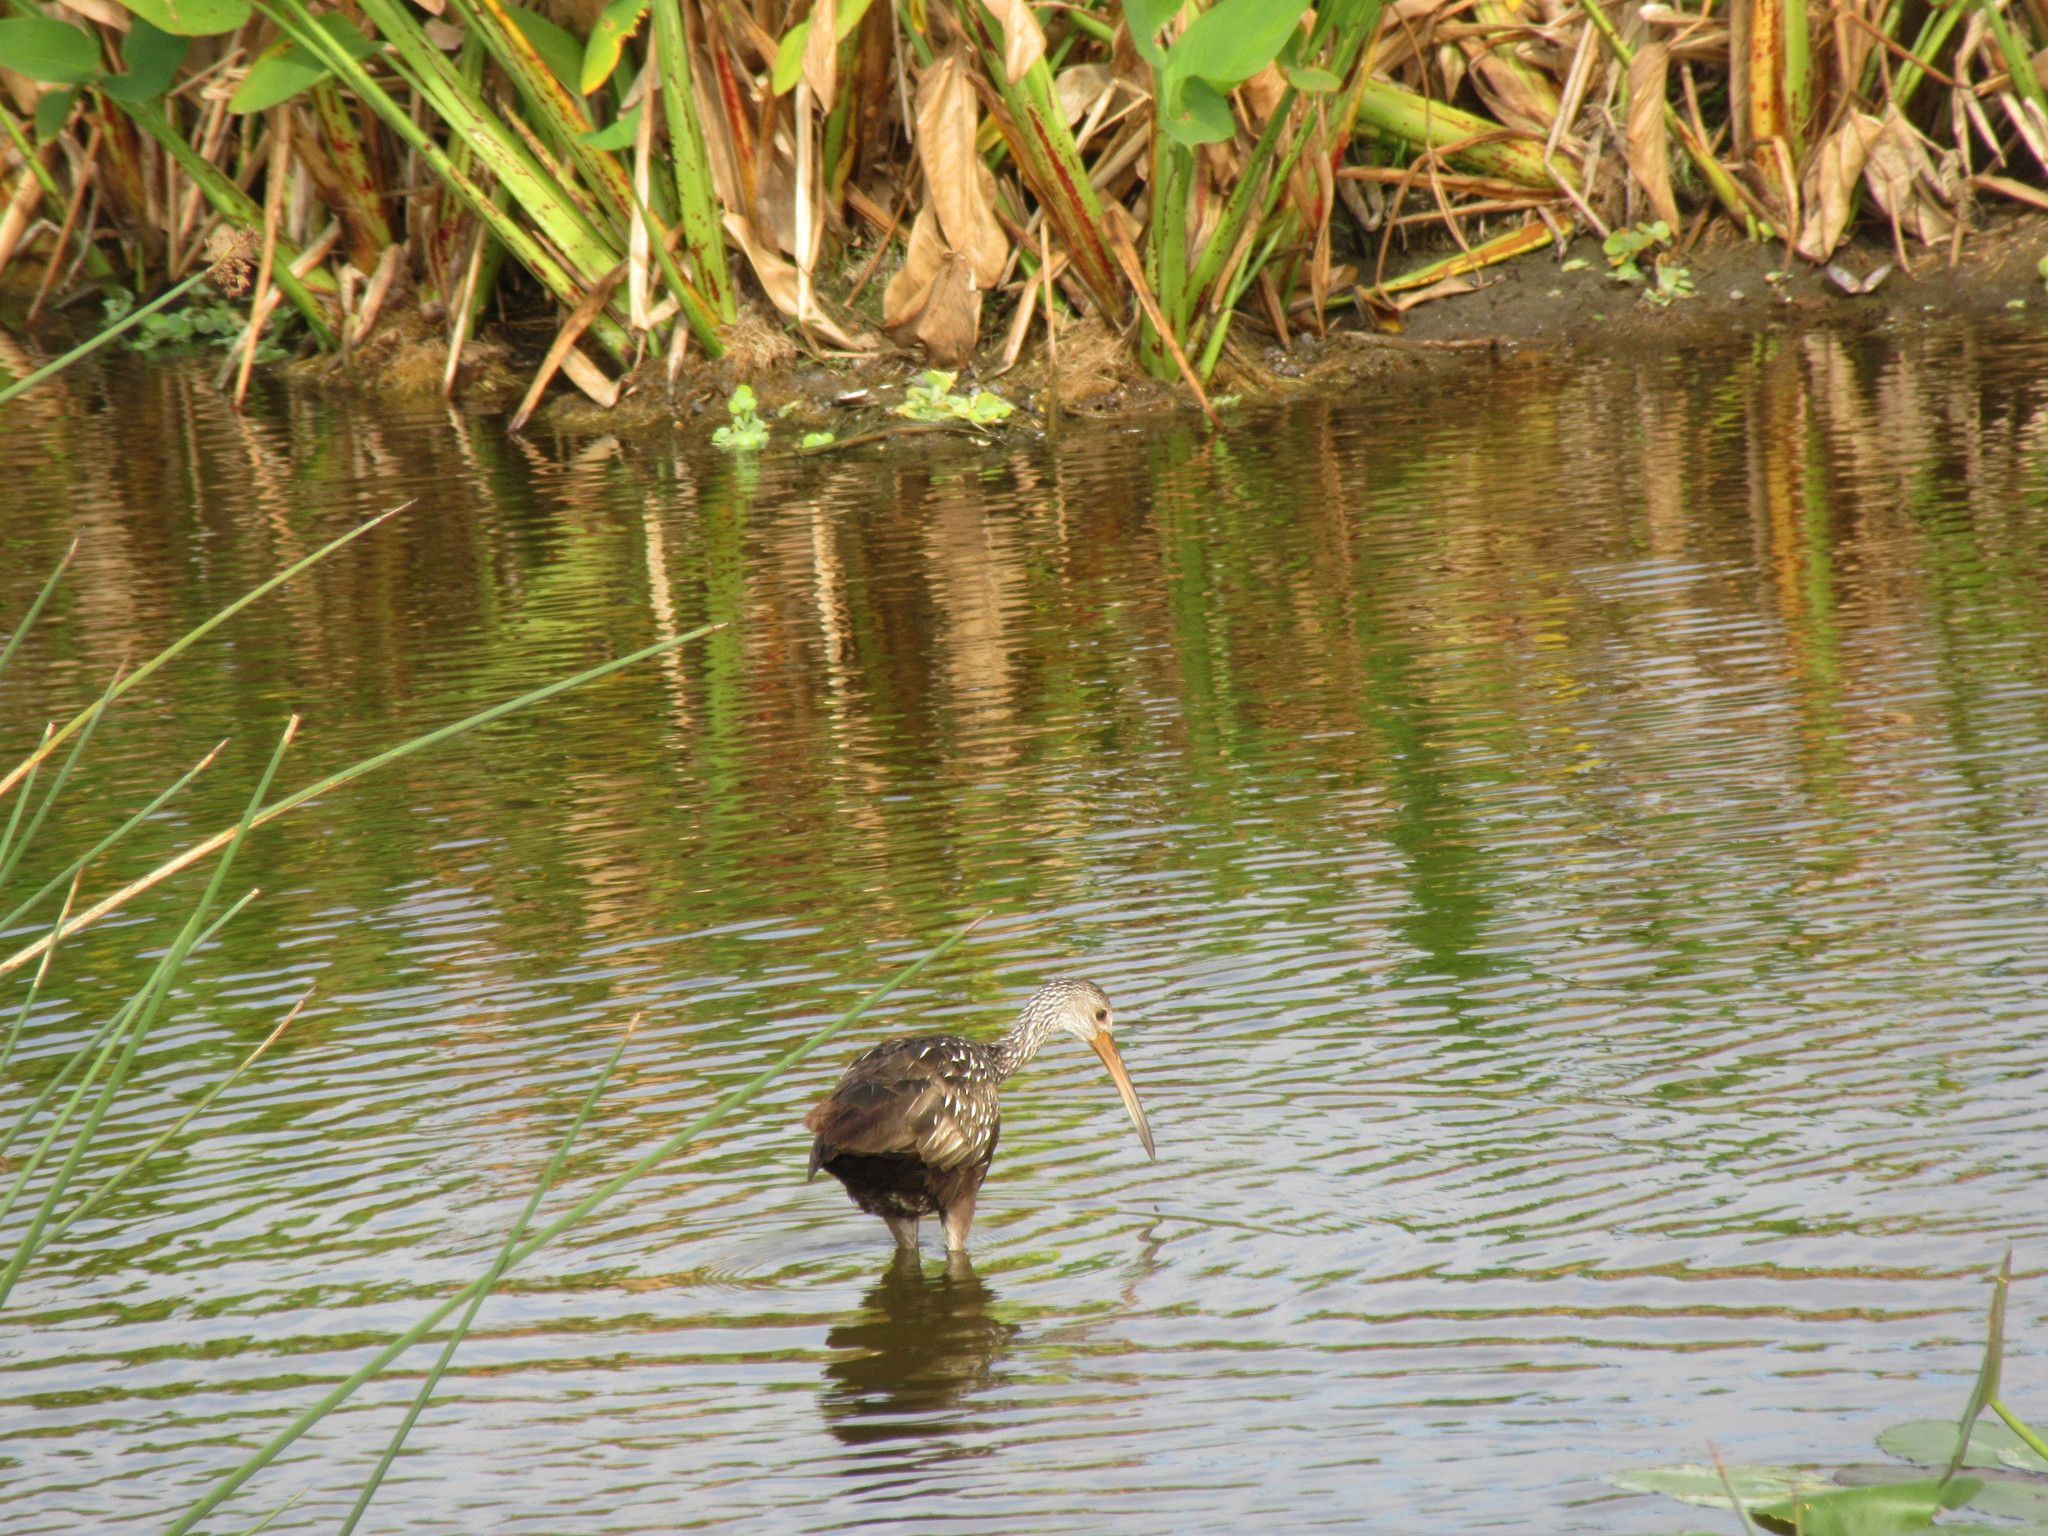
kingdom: Animalia
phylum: Chordata
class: Aves
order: Gruiformes
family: Aramidae
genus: Aramus
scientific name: Aramus guarauna
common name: Limpkin
